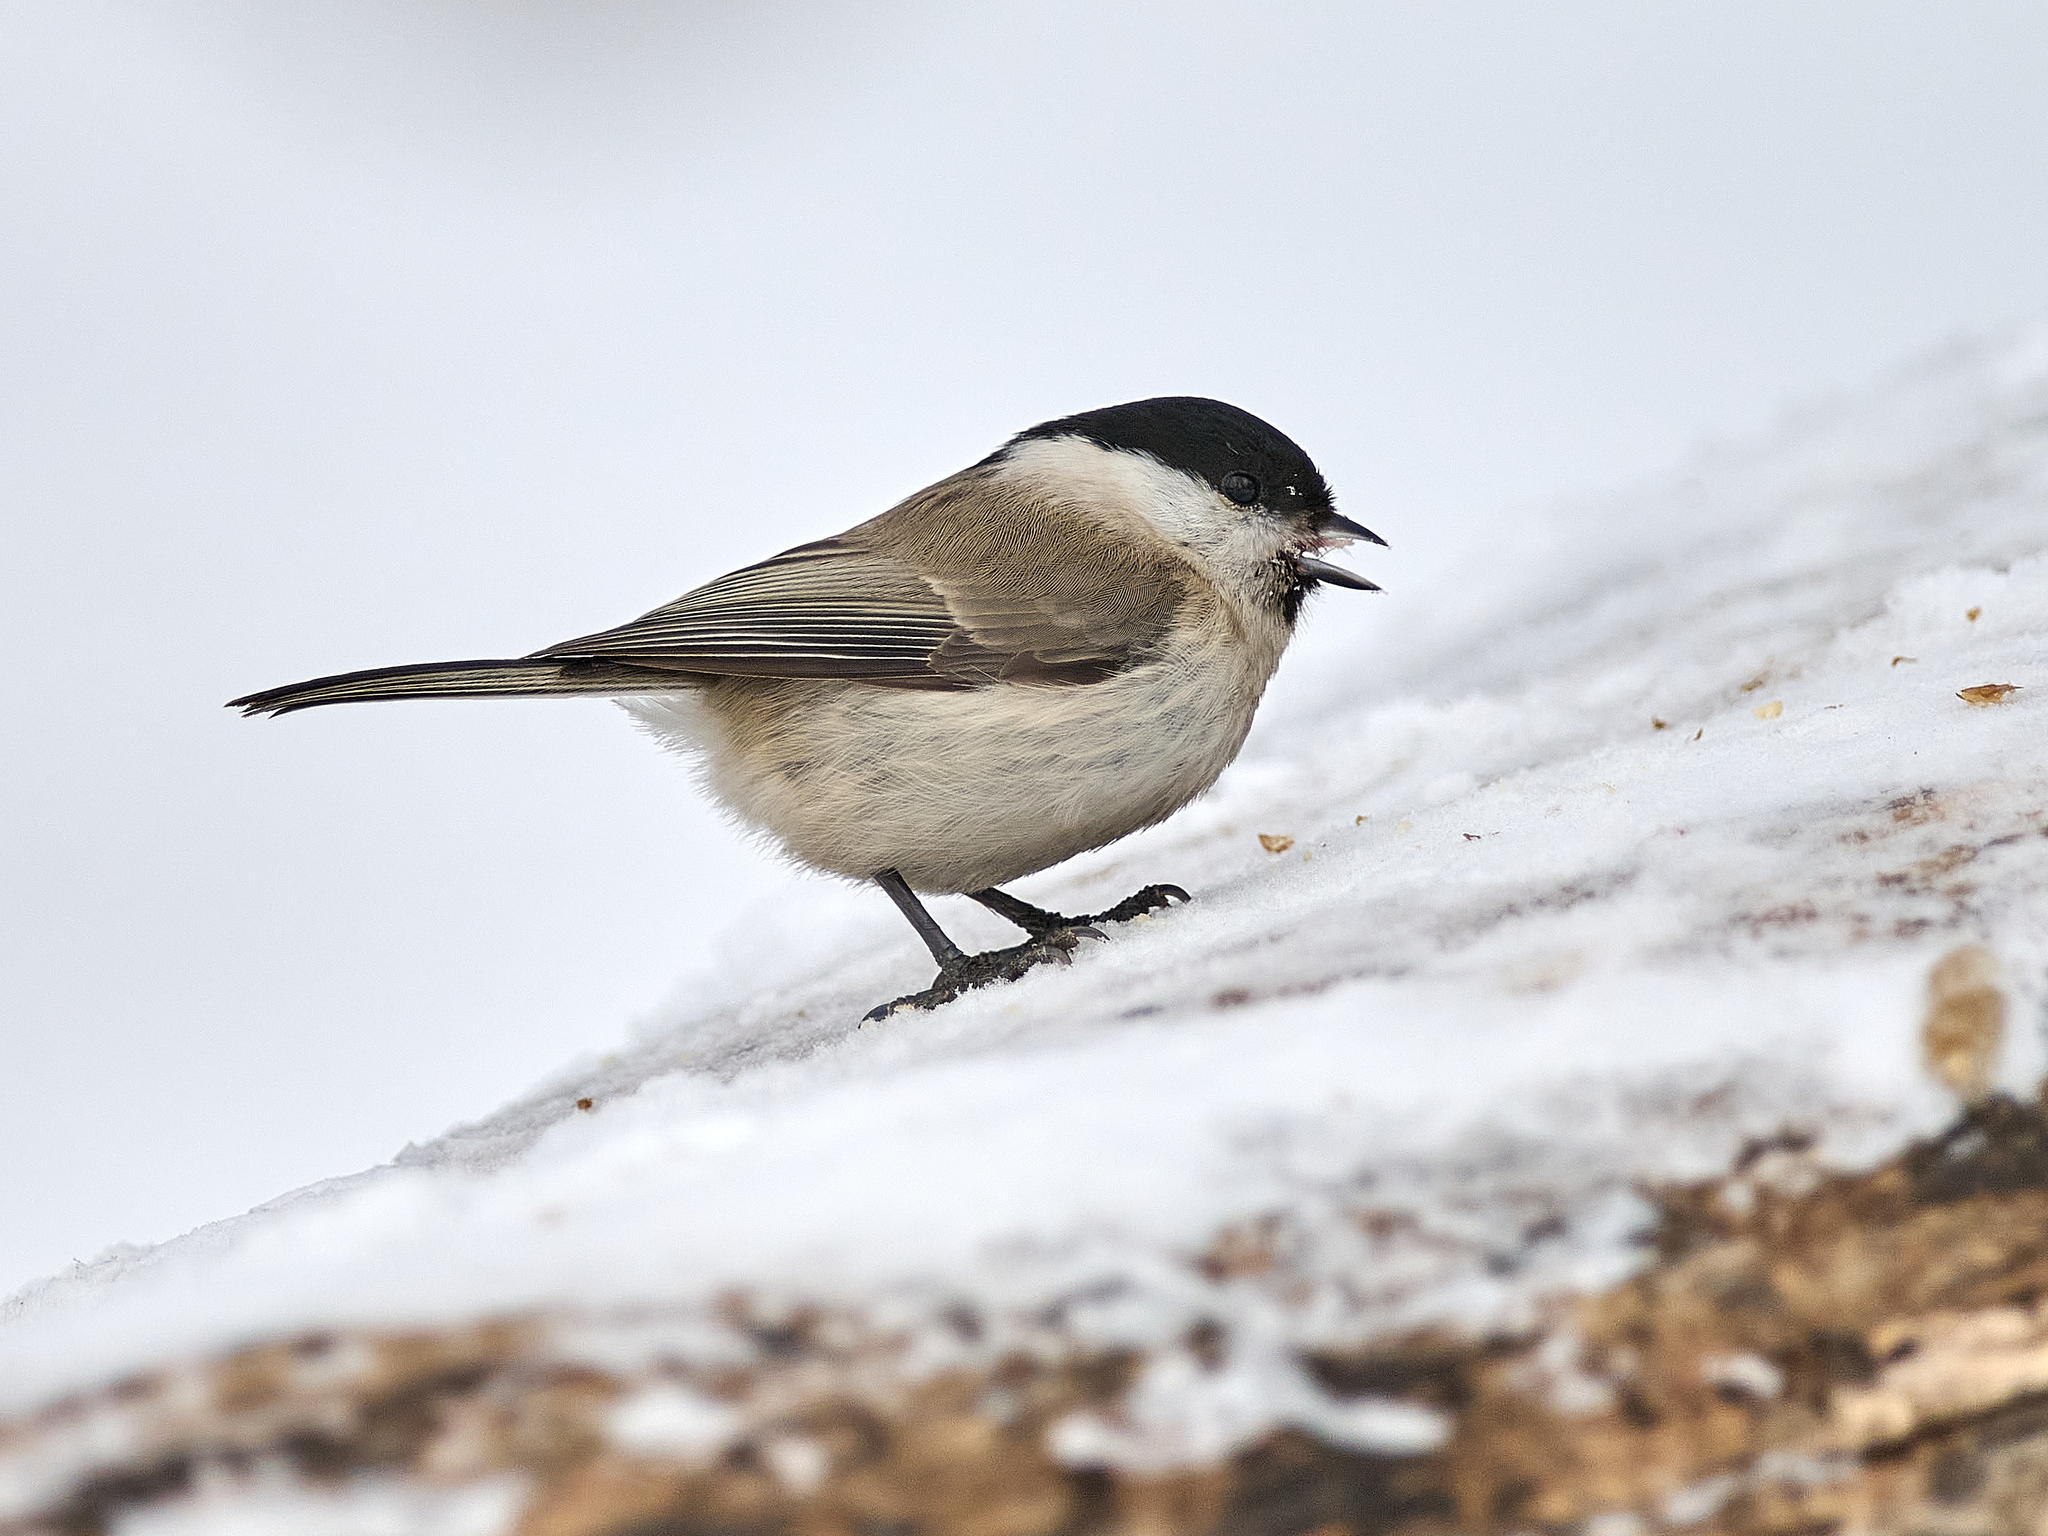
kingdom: Animalia
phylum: Chordata
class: Aves
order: Passeriformes
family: Paridae
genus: Poecile
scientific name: Poecile palustris
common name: Marsh tit
